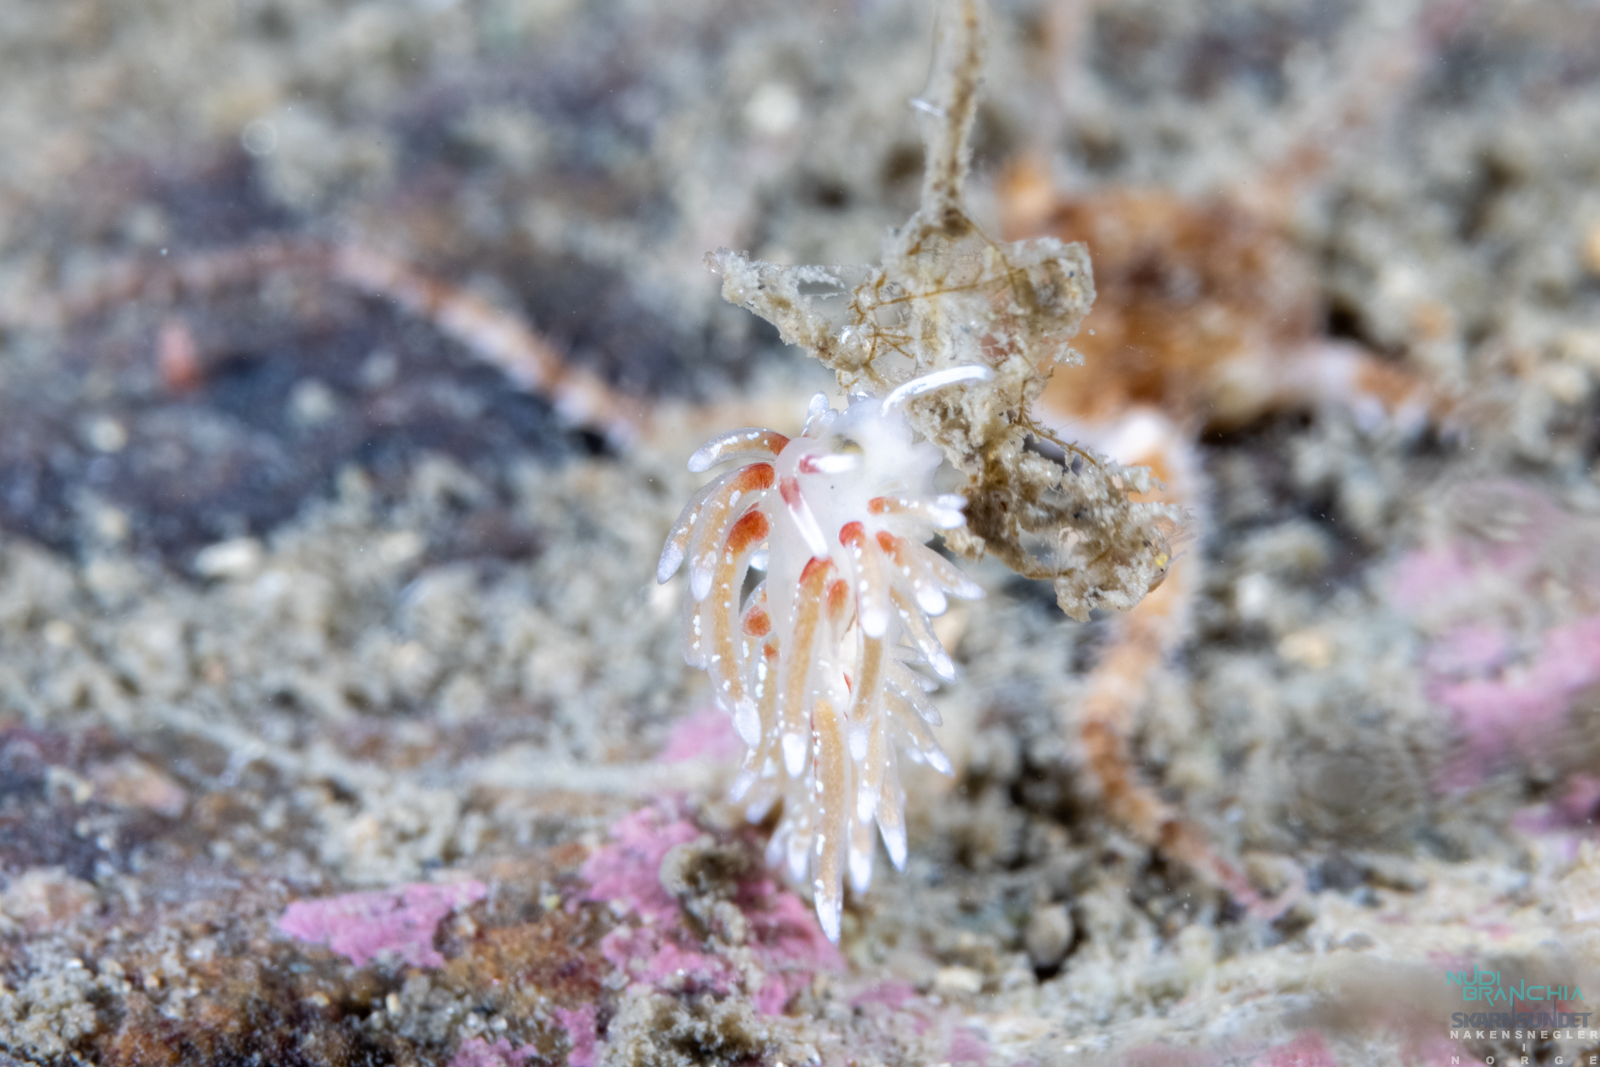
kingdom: Animalia
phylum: Mollusca
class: Gastropoda
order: Nudibranchia
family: Trinchesiidae
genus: Rubramoena
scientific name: Rubramoena rubescens
